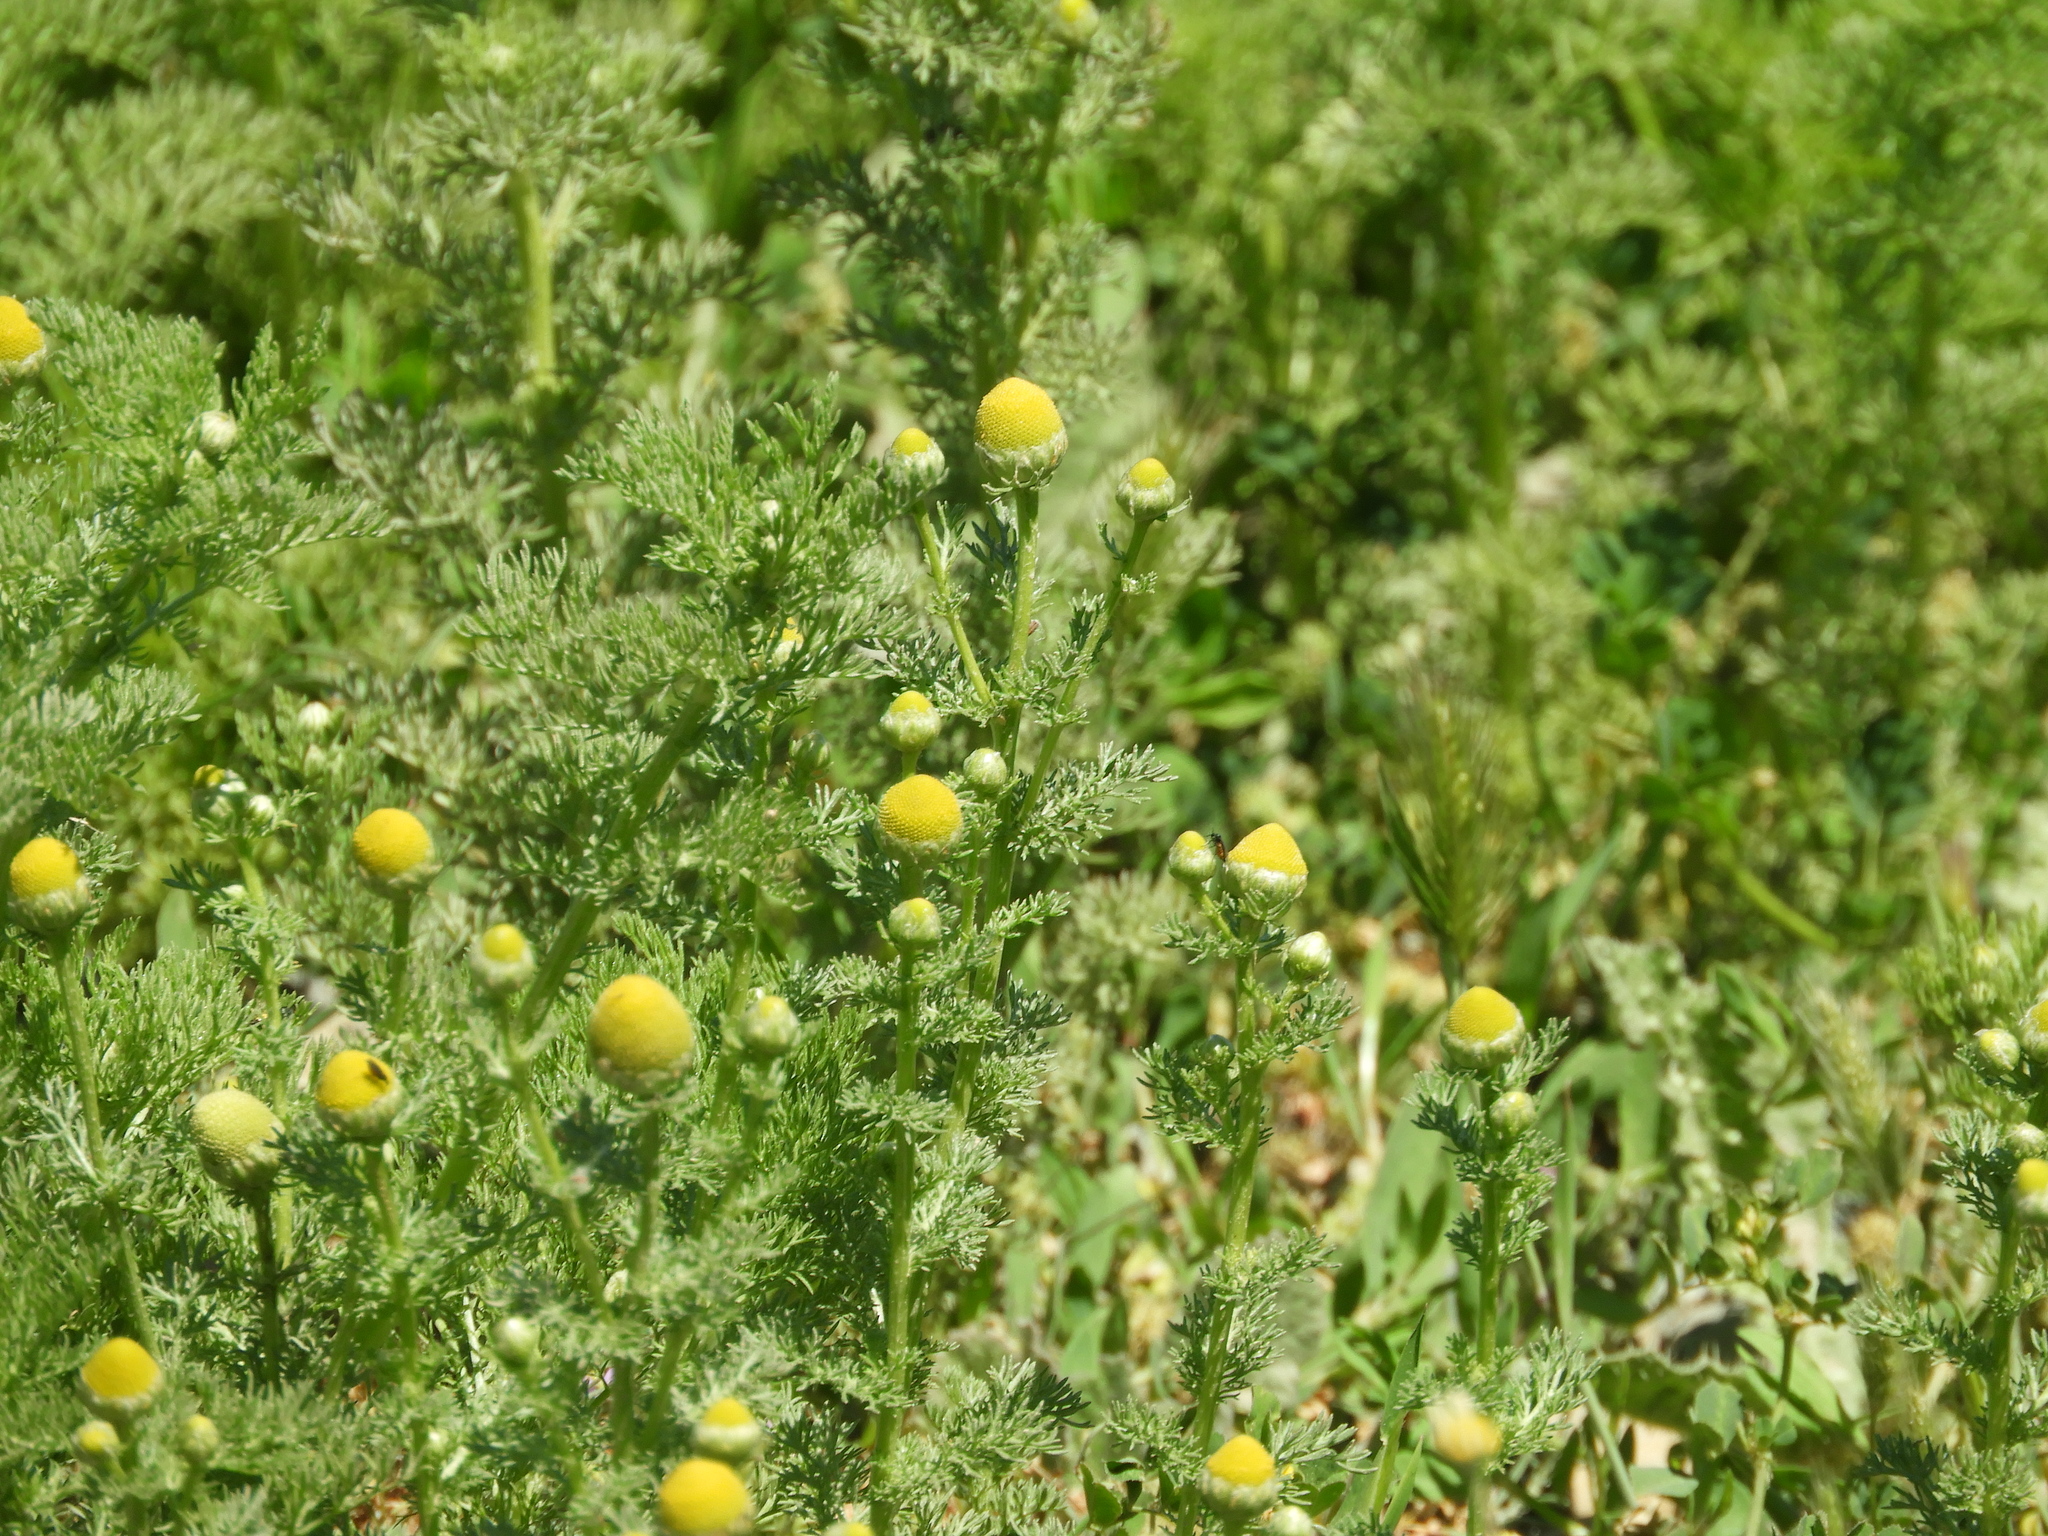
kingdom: Plantae
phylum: Tracheophyta
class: Magnoliopsida
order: Asterales
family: Asteraceae
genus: Matricaria
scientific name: Matricaria discoidea
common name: Disc mayweed
